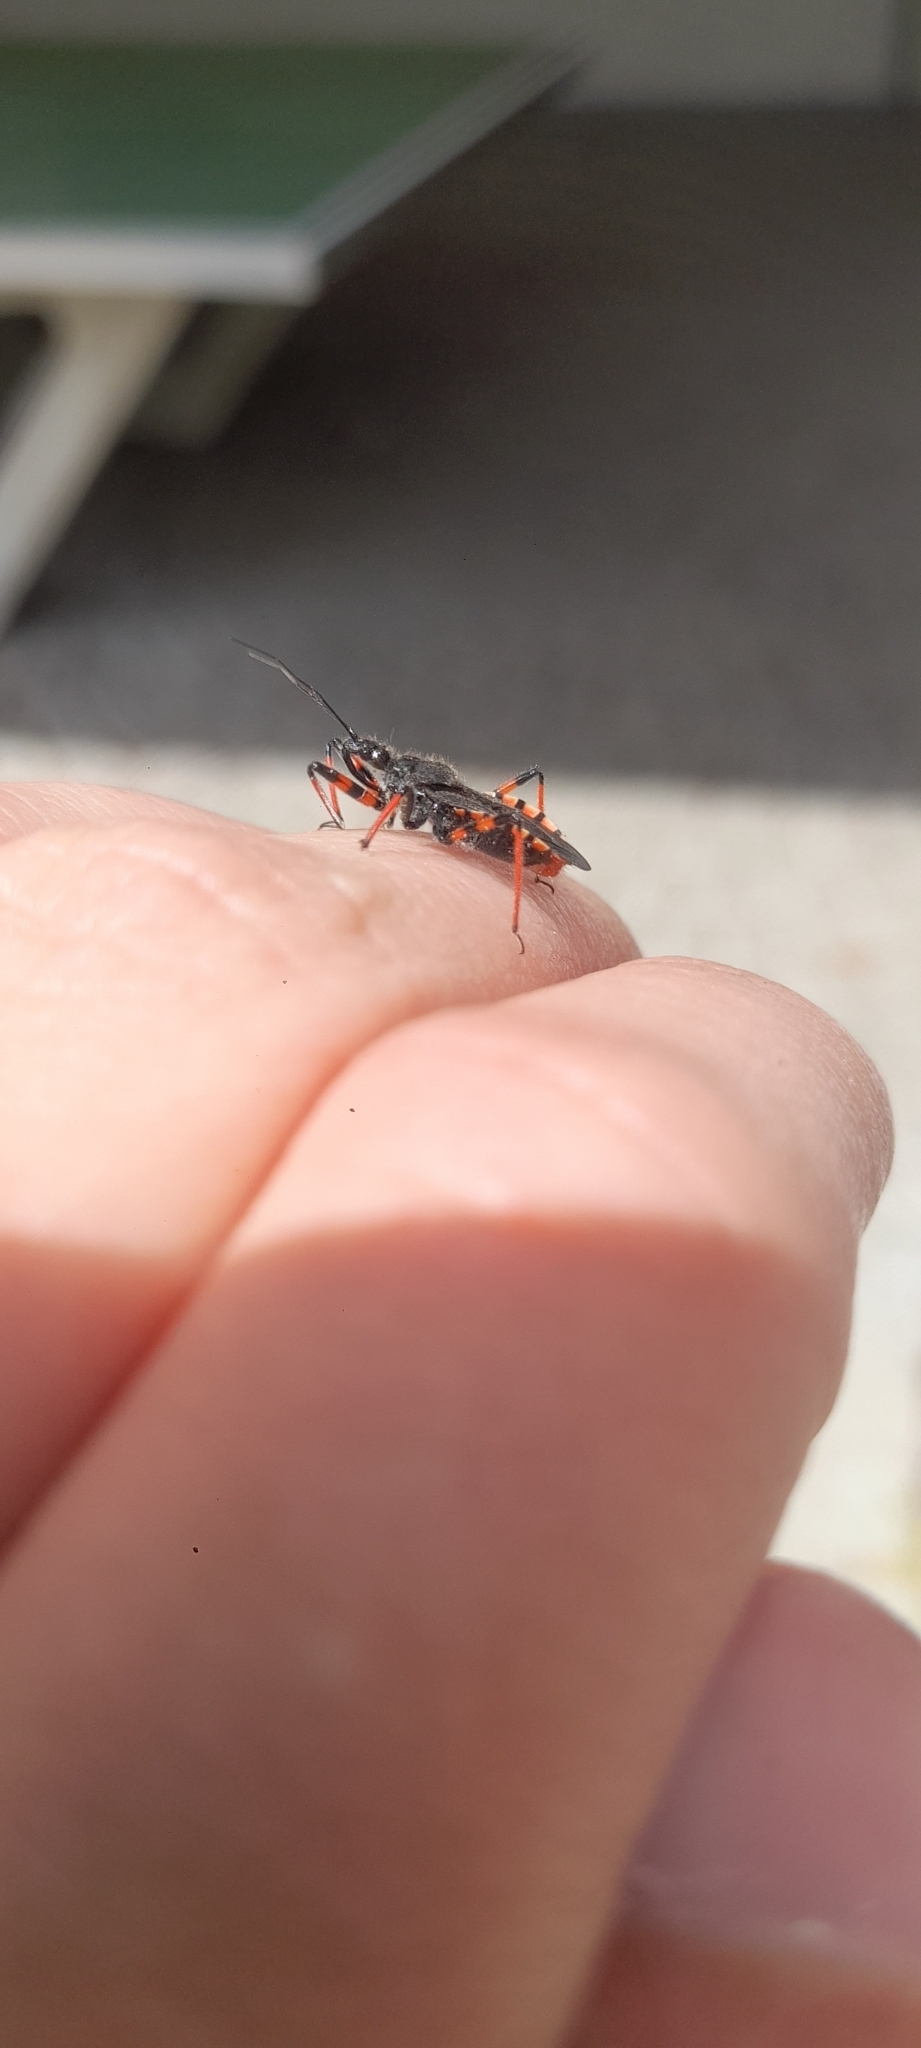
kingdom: Animalia
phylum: Arthropoda
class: Insecta
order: Hemiptera
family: Reduviidae
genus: Rhynocoris
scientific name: Rhynocoris annulatus
